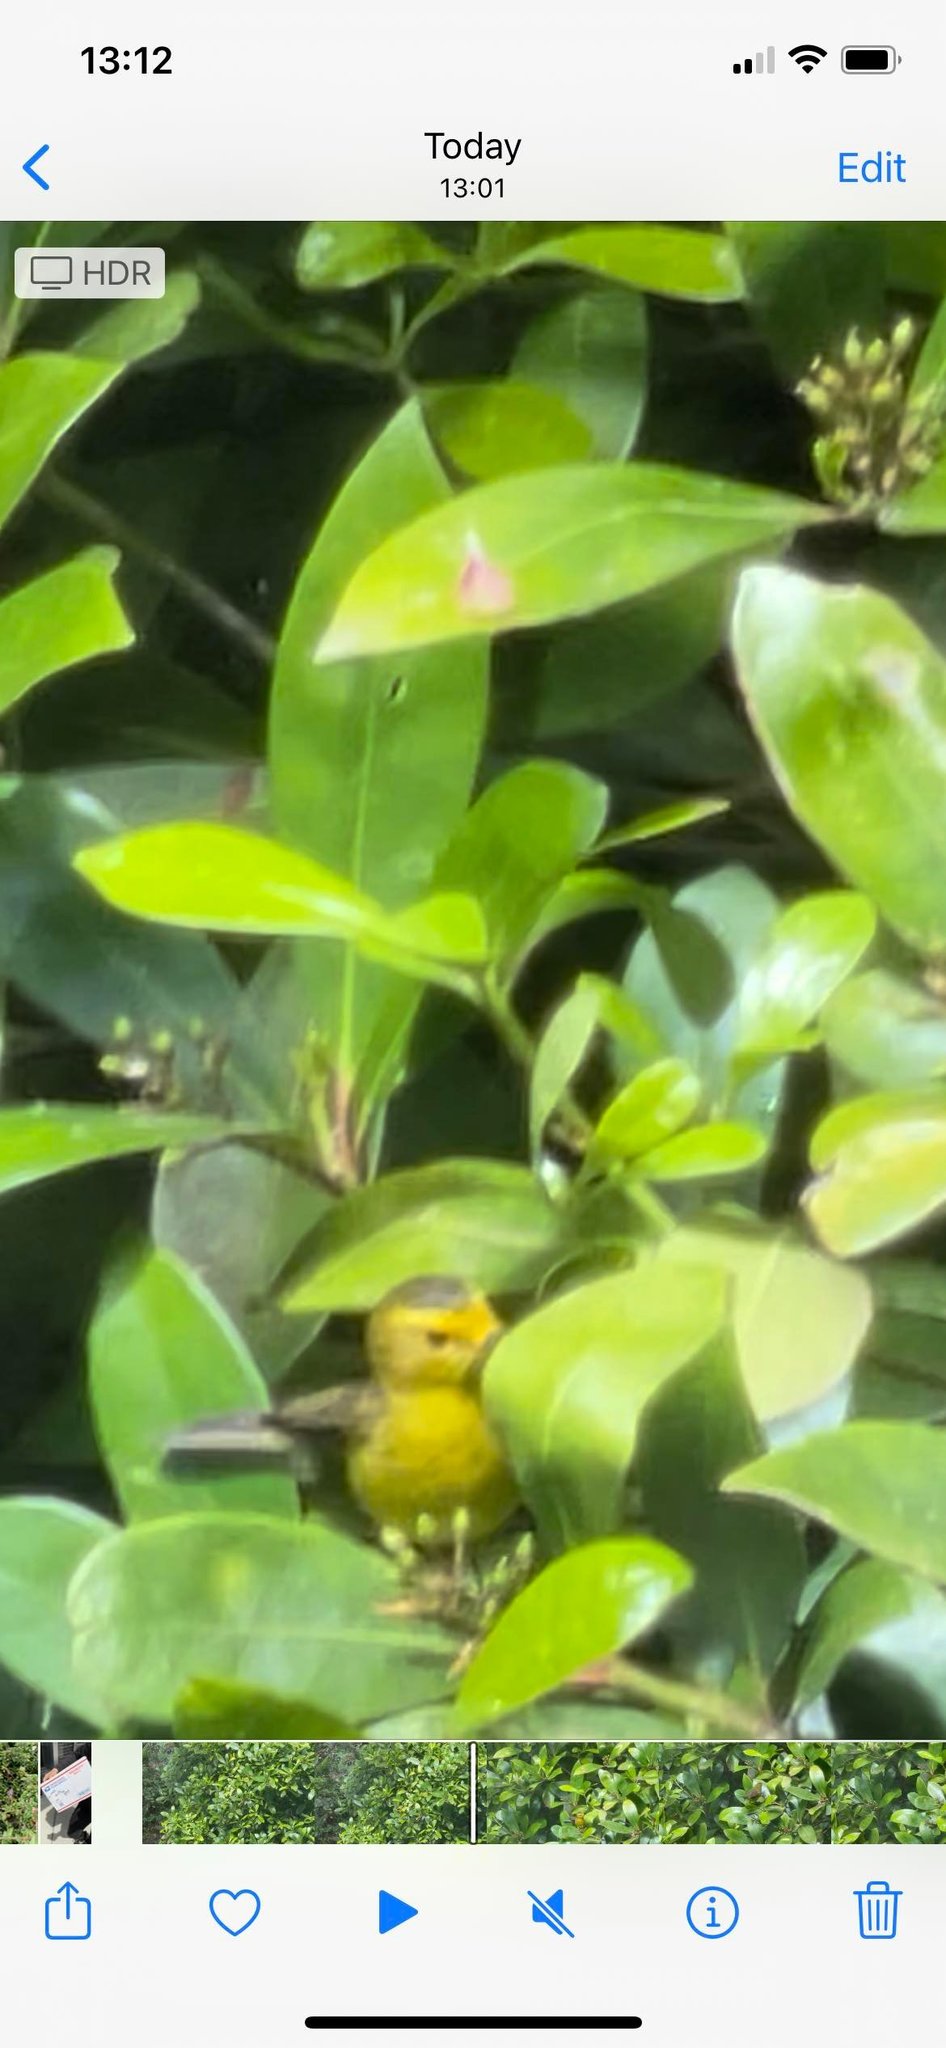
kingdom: Animalia
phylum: Chordata
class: Aves
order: Passeriformes
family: Parulidae
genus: Cardellina
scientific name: Cardellina pusilla
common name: Wilson's warbler
